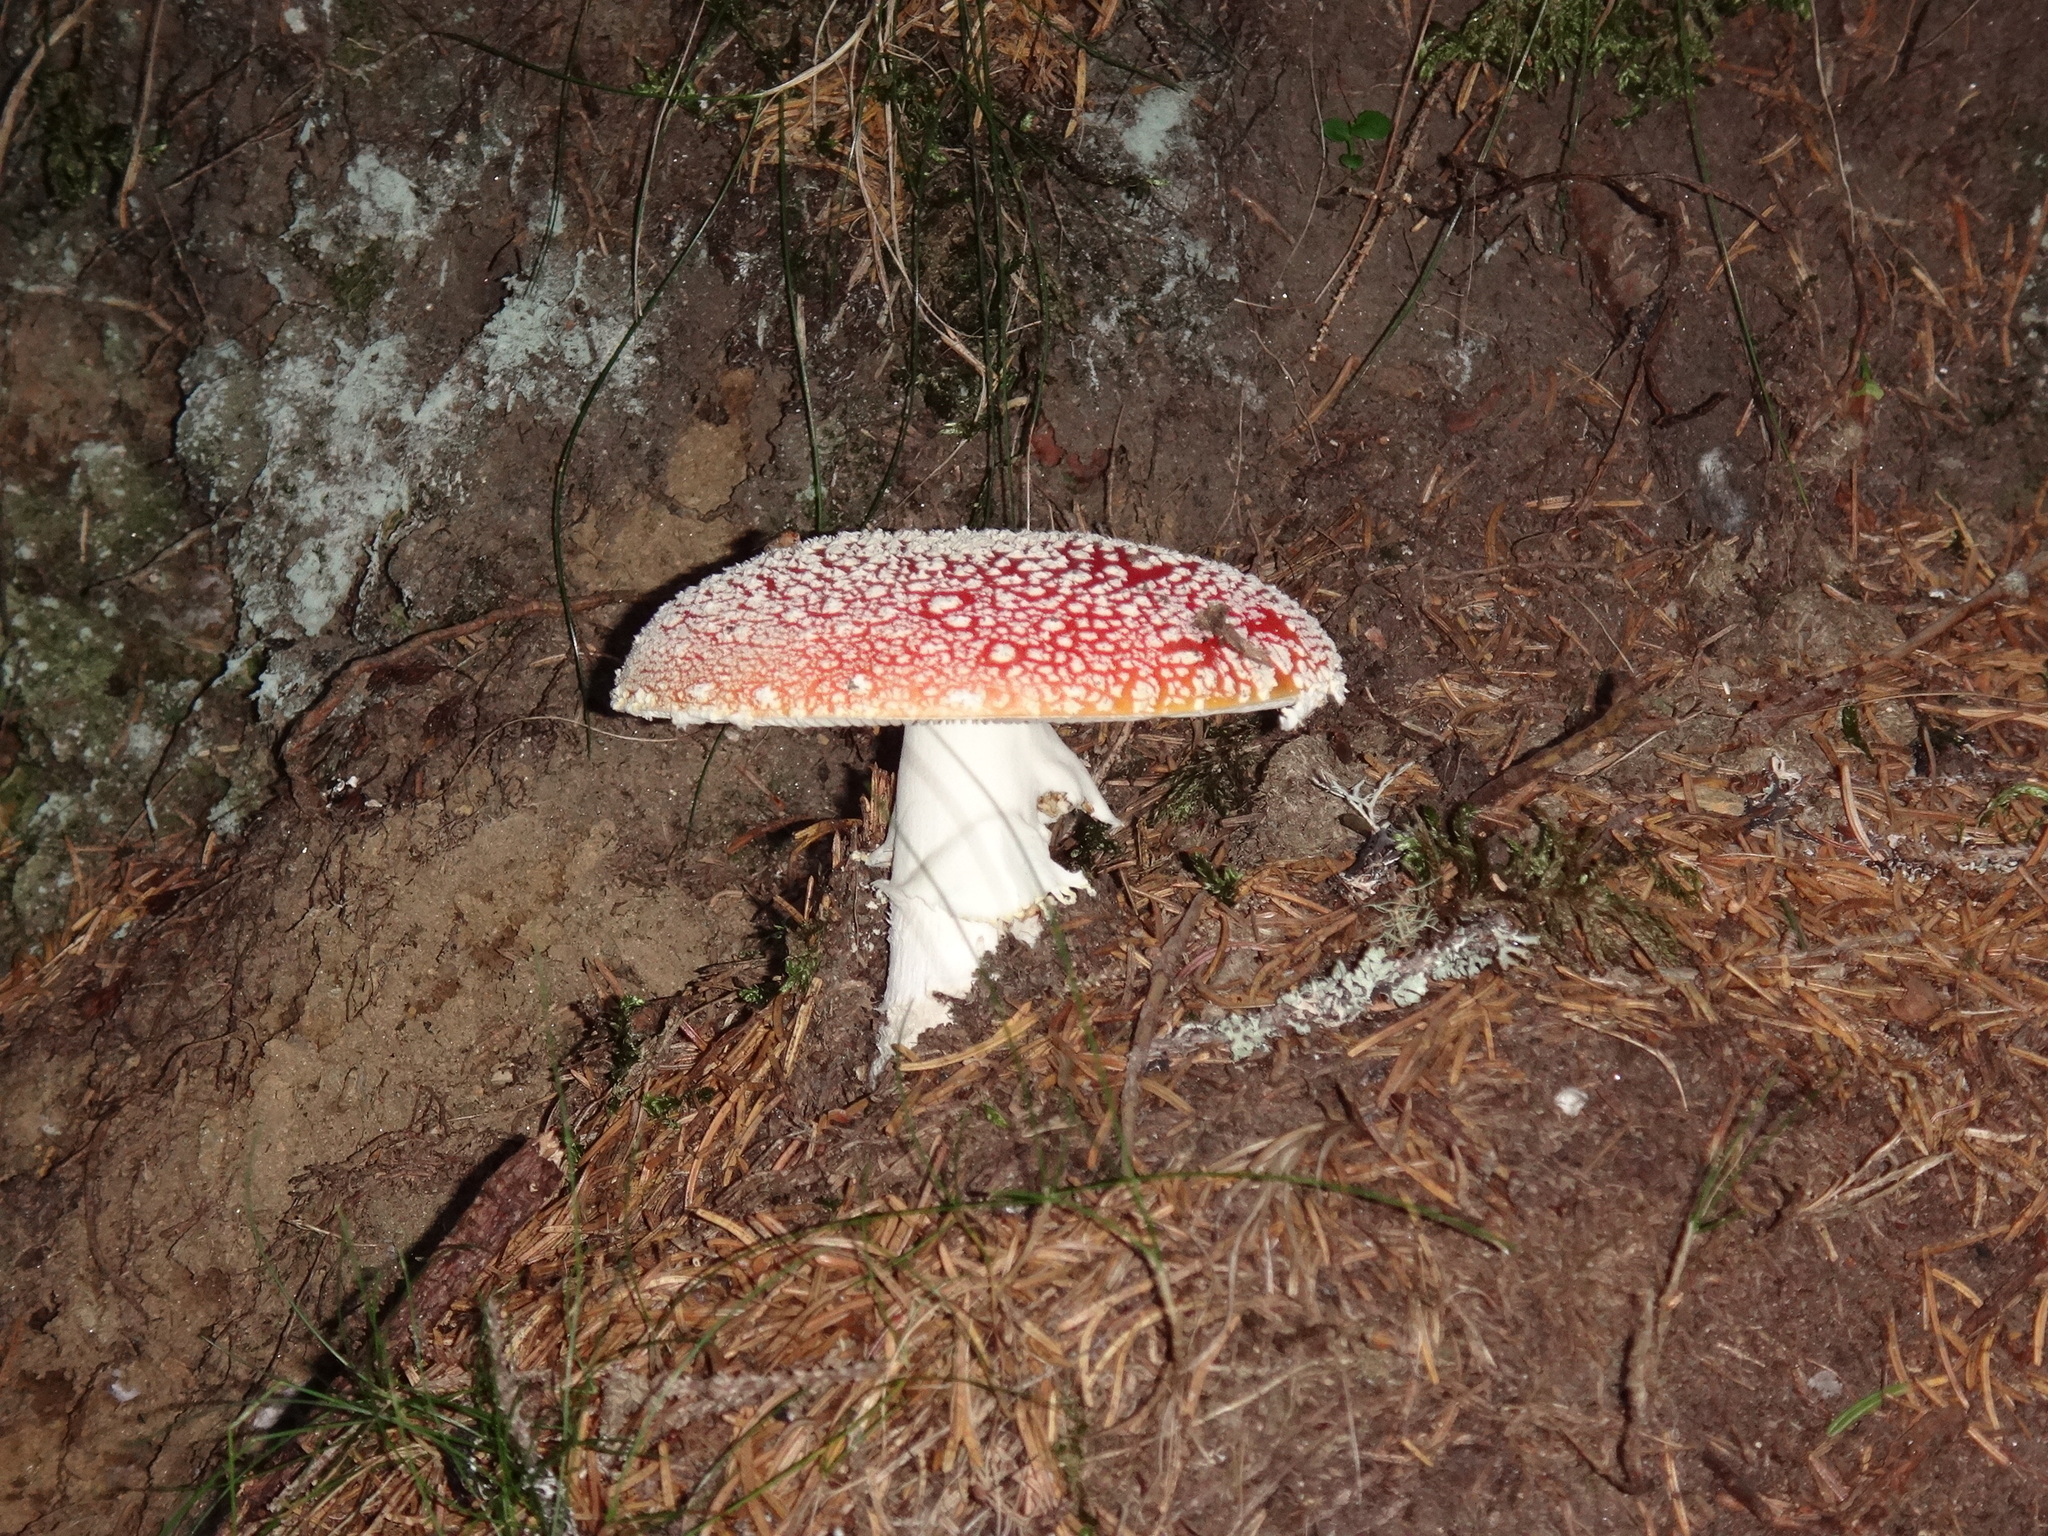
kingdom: Fungi
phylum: Basidiomycota
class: Agaricomycetes
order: Agaricales
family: Amanitaceae
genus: Amanita
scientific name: Amanita muscaria
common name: Fly agaric
